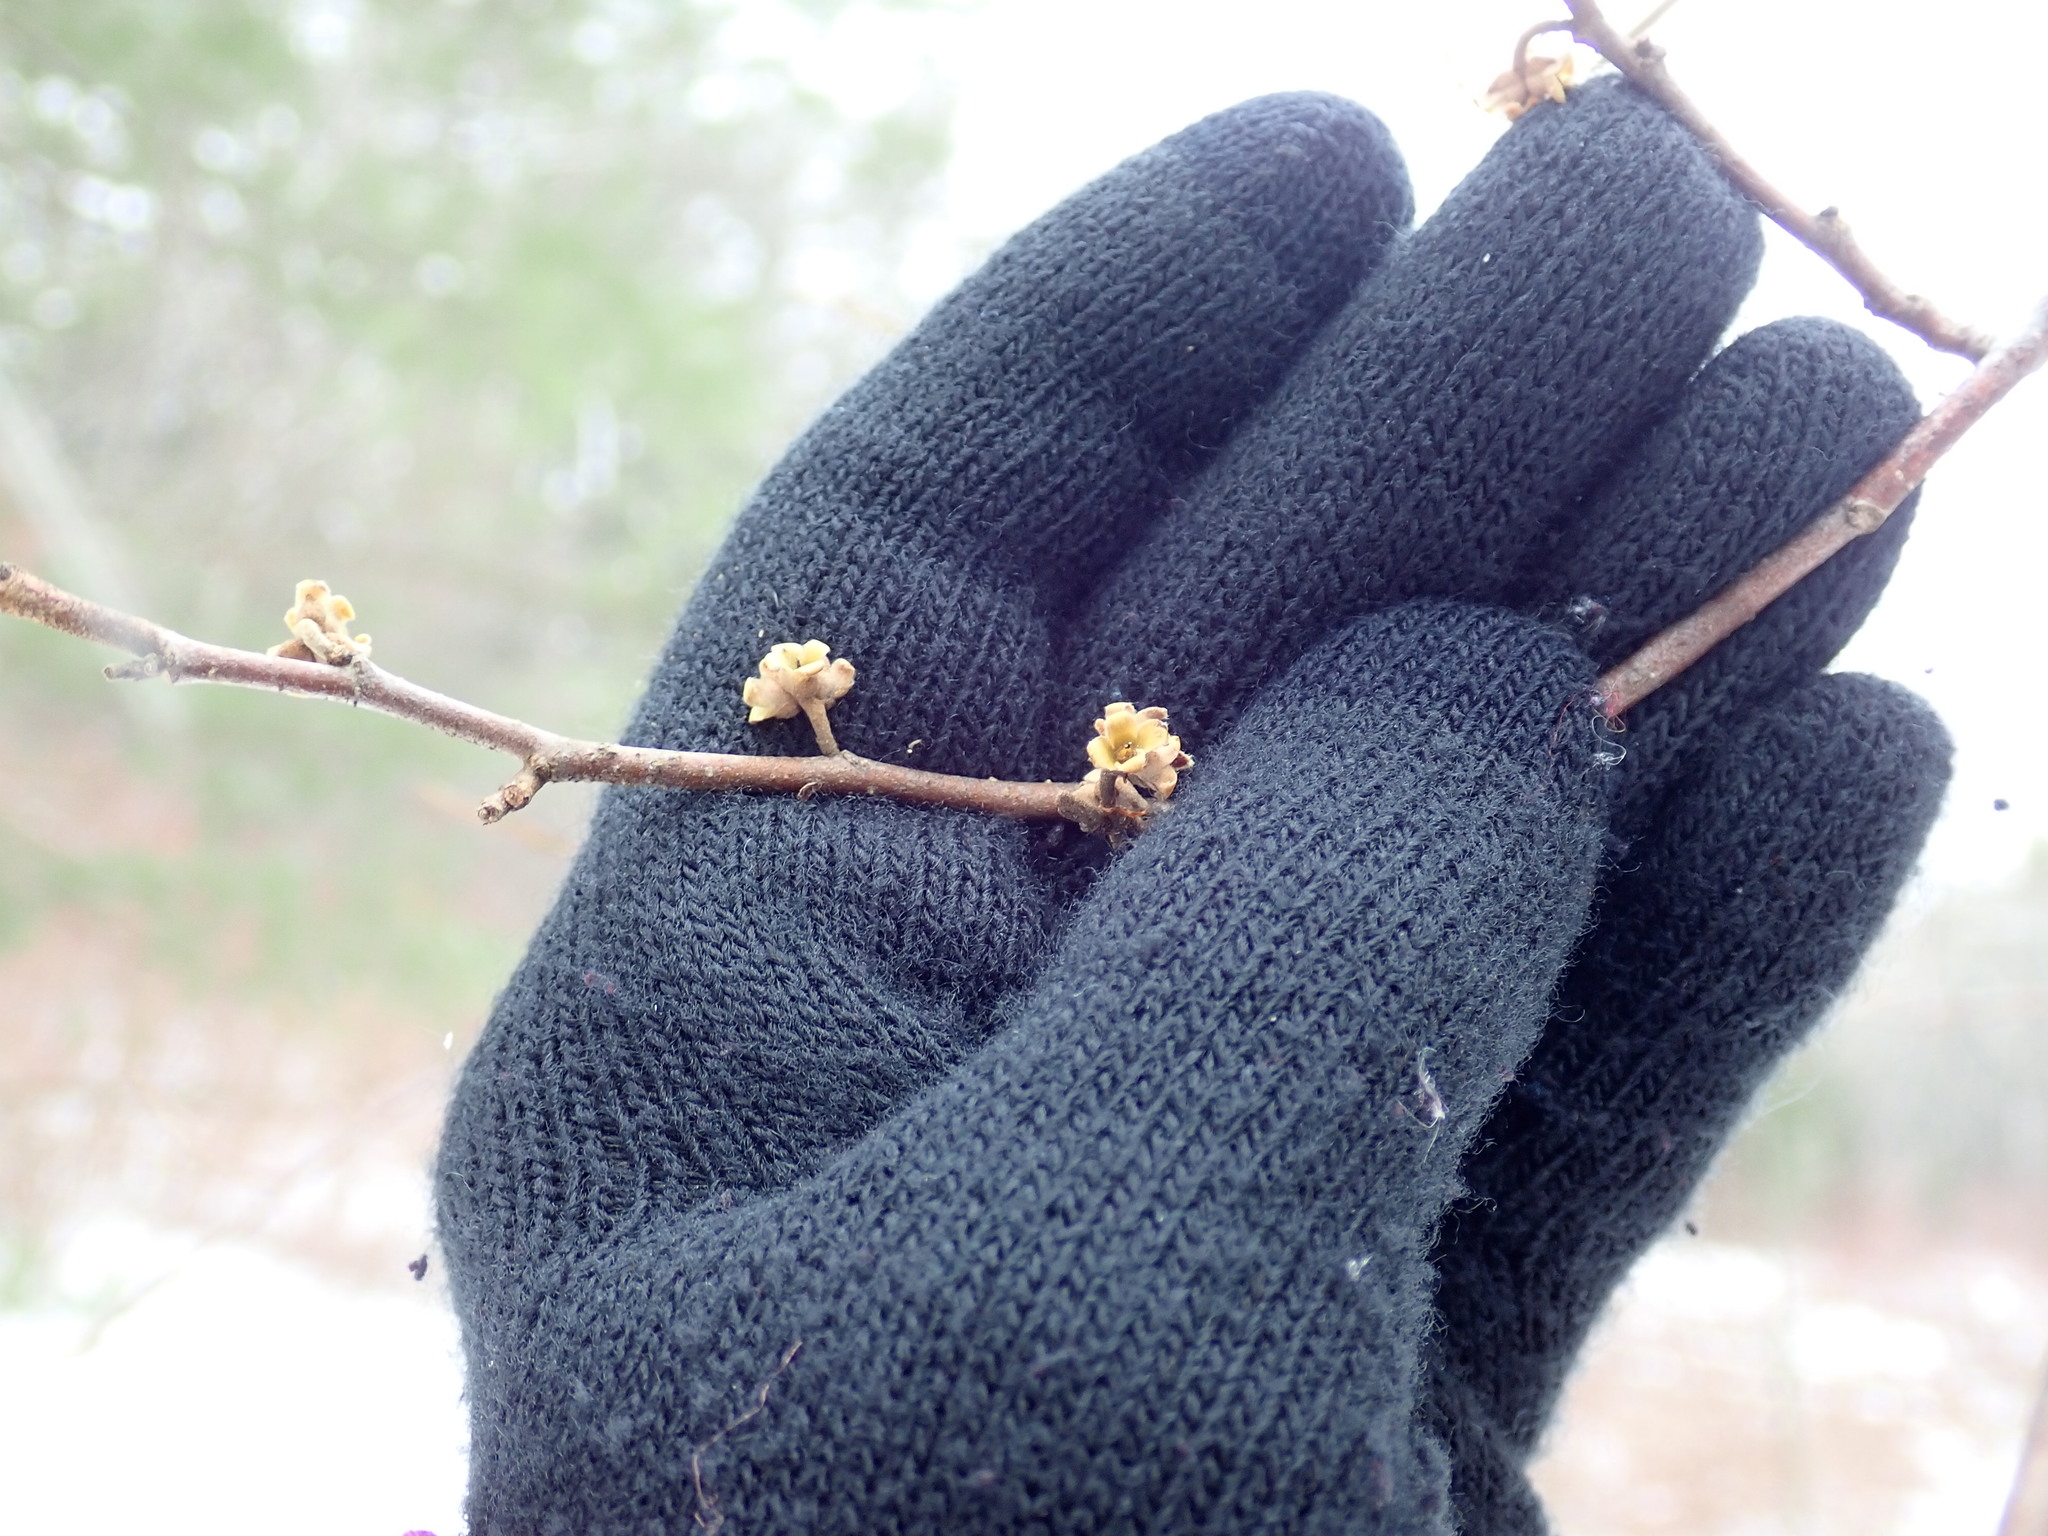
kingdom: Plantae
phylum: Tracheophyta
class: Magnoliopsida
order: Saxifragales
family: Hamamelidaceae
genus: Hamamelis
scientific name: Hamamelis virginiana
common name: Witch-hazel
